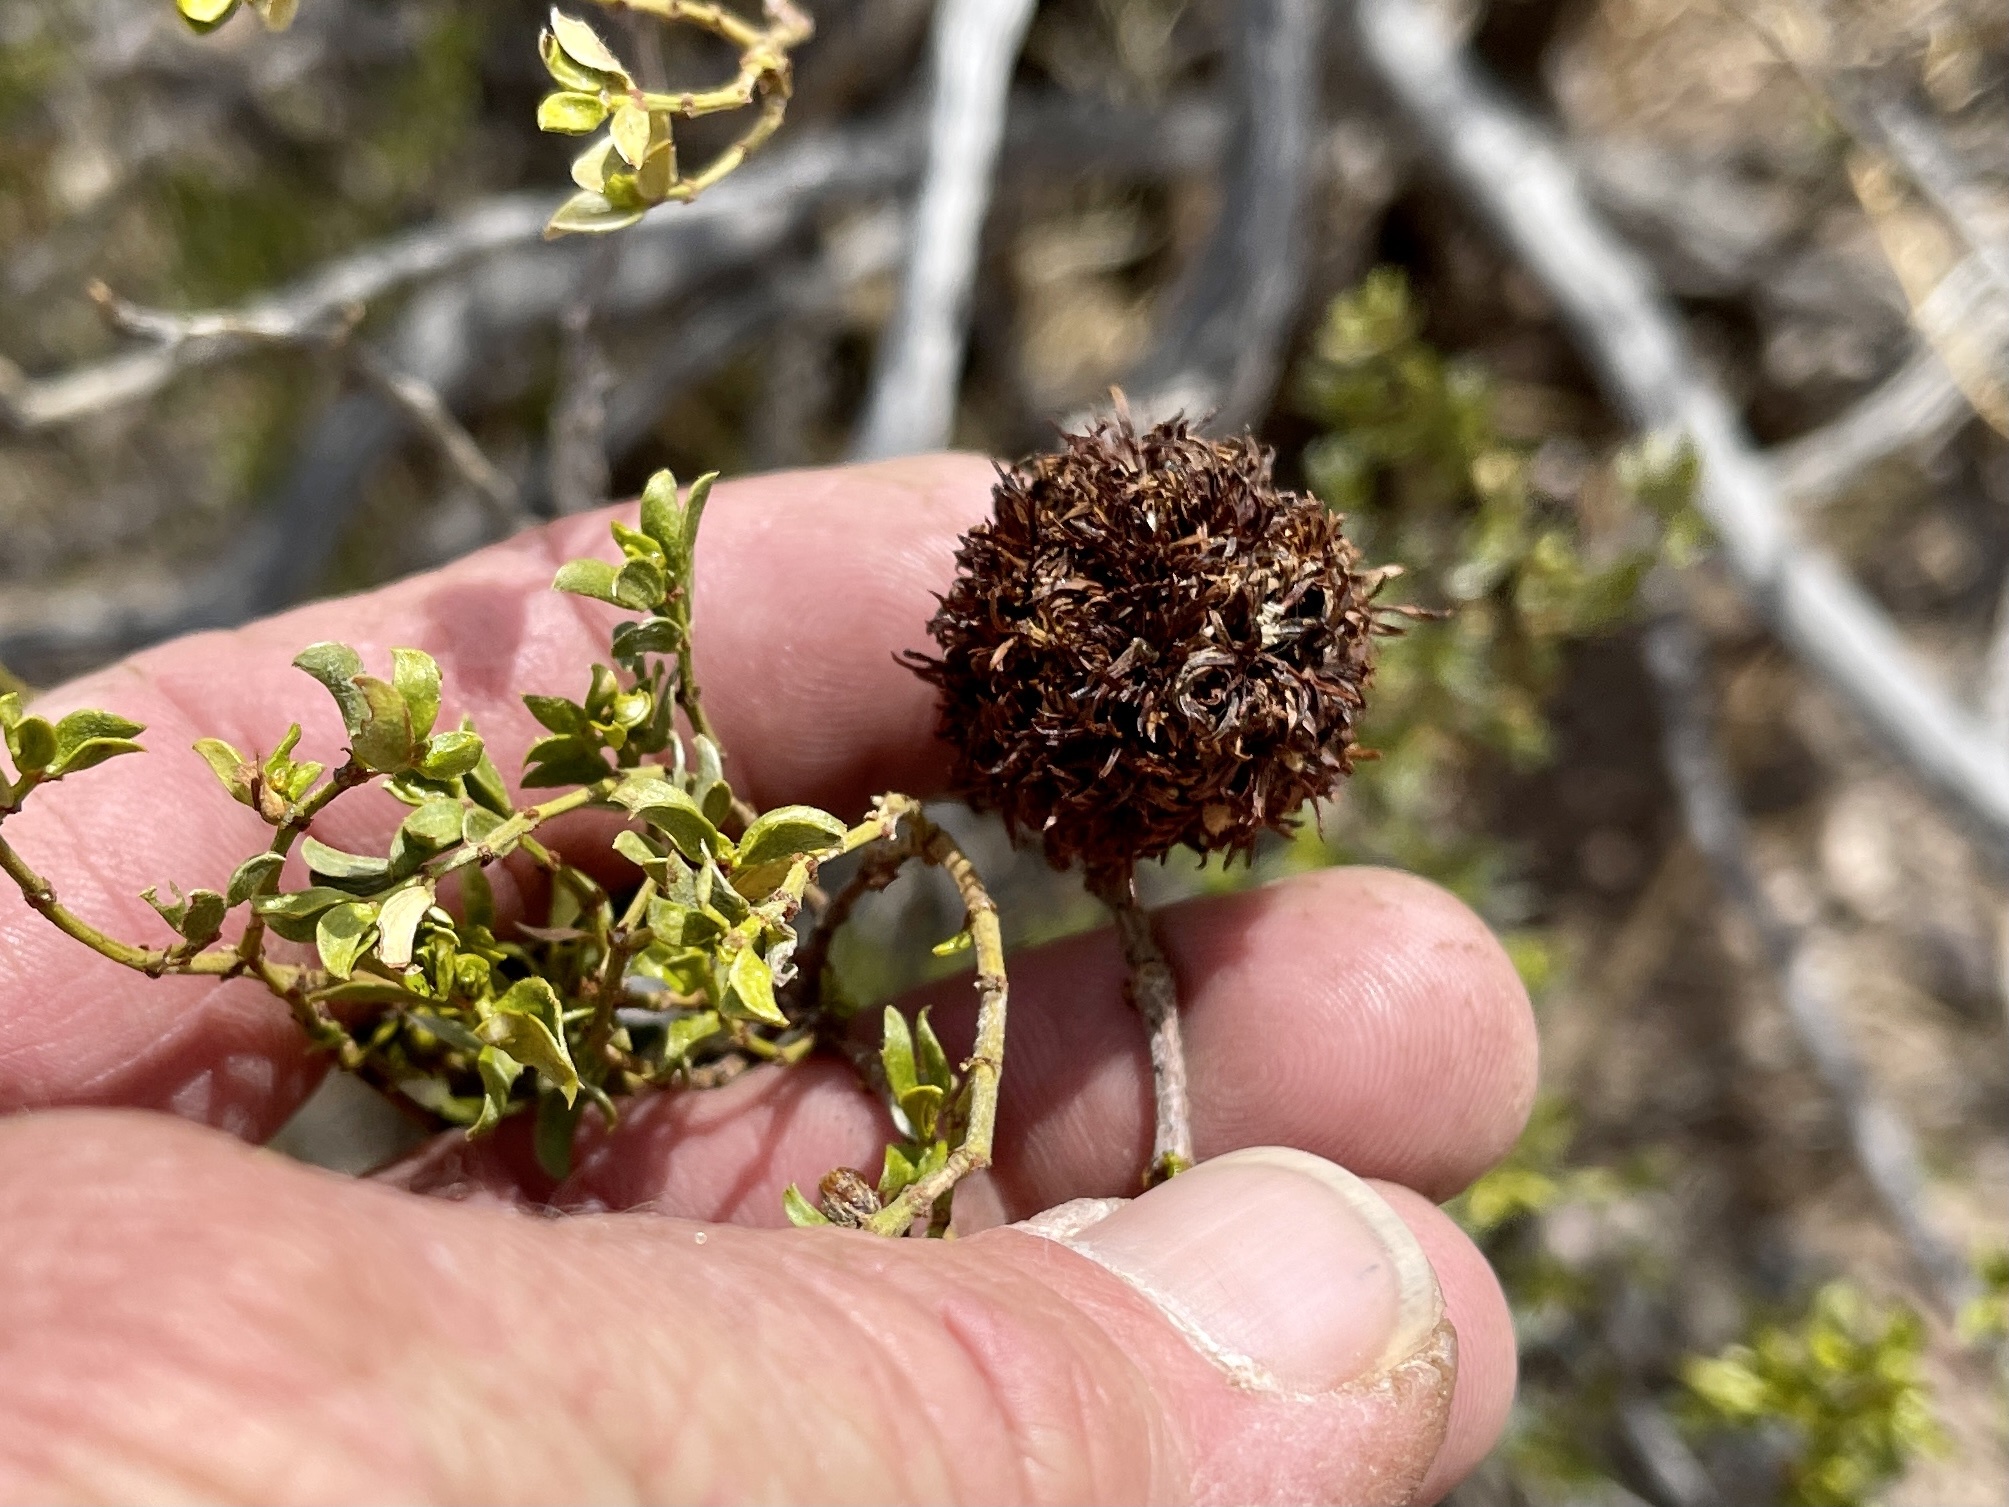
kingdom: Animalia
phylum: Arthropoda
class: Insecta
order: Diptera
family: Cecidomyiidae
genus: Asphondylia
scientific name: Asphondylia auripila
